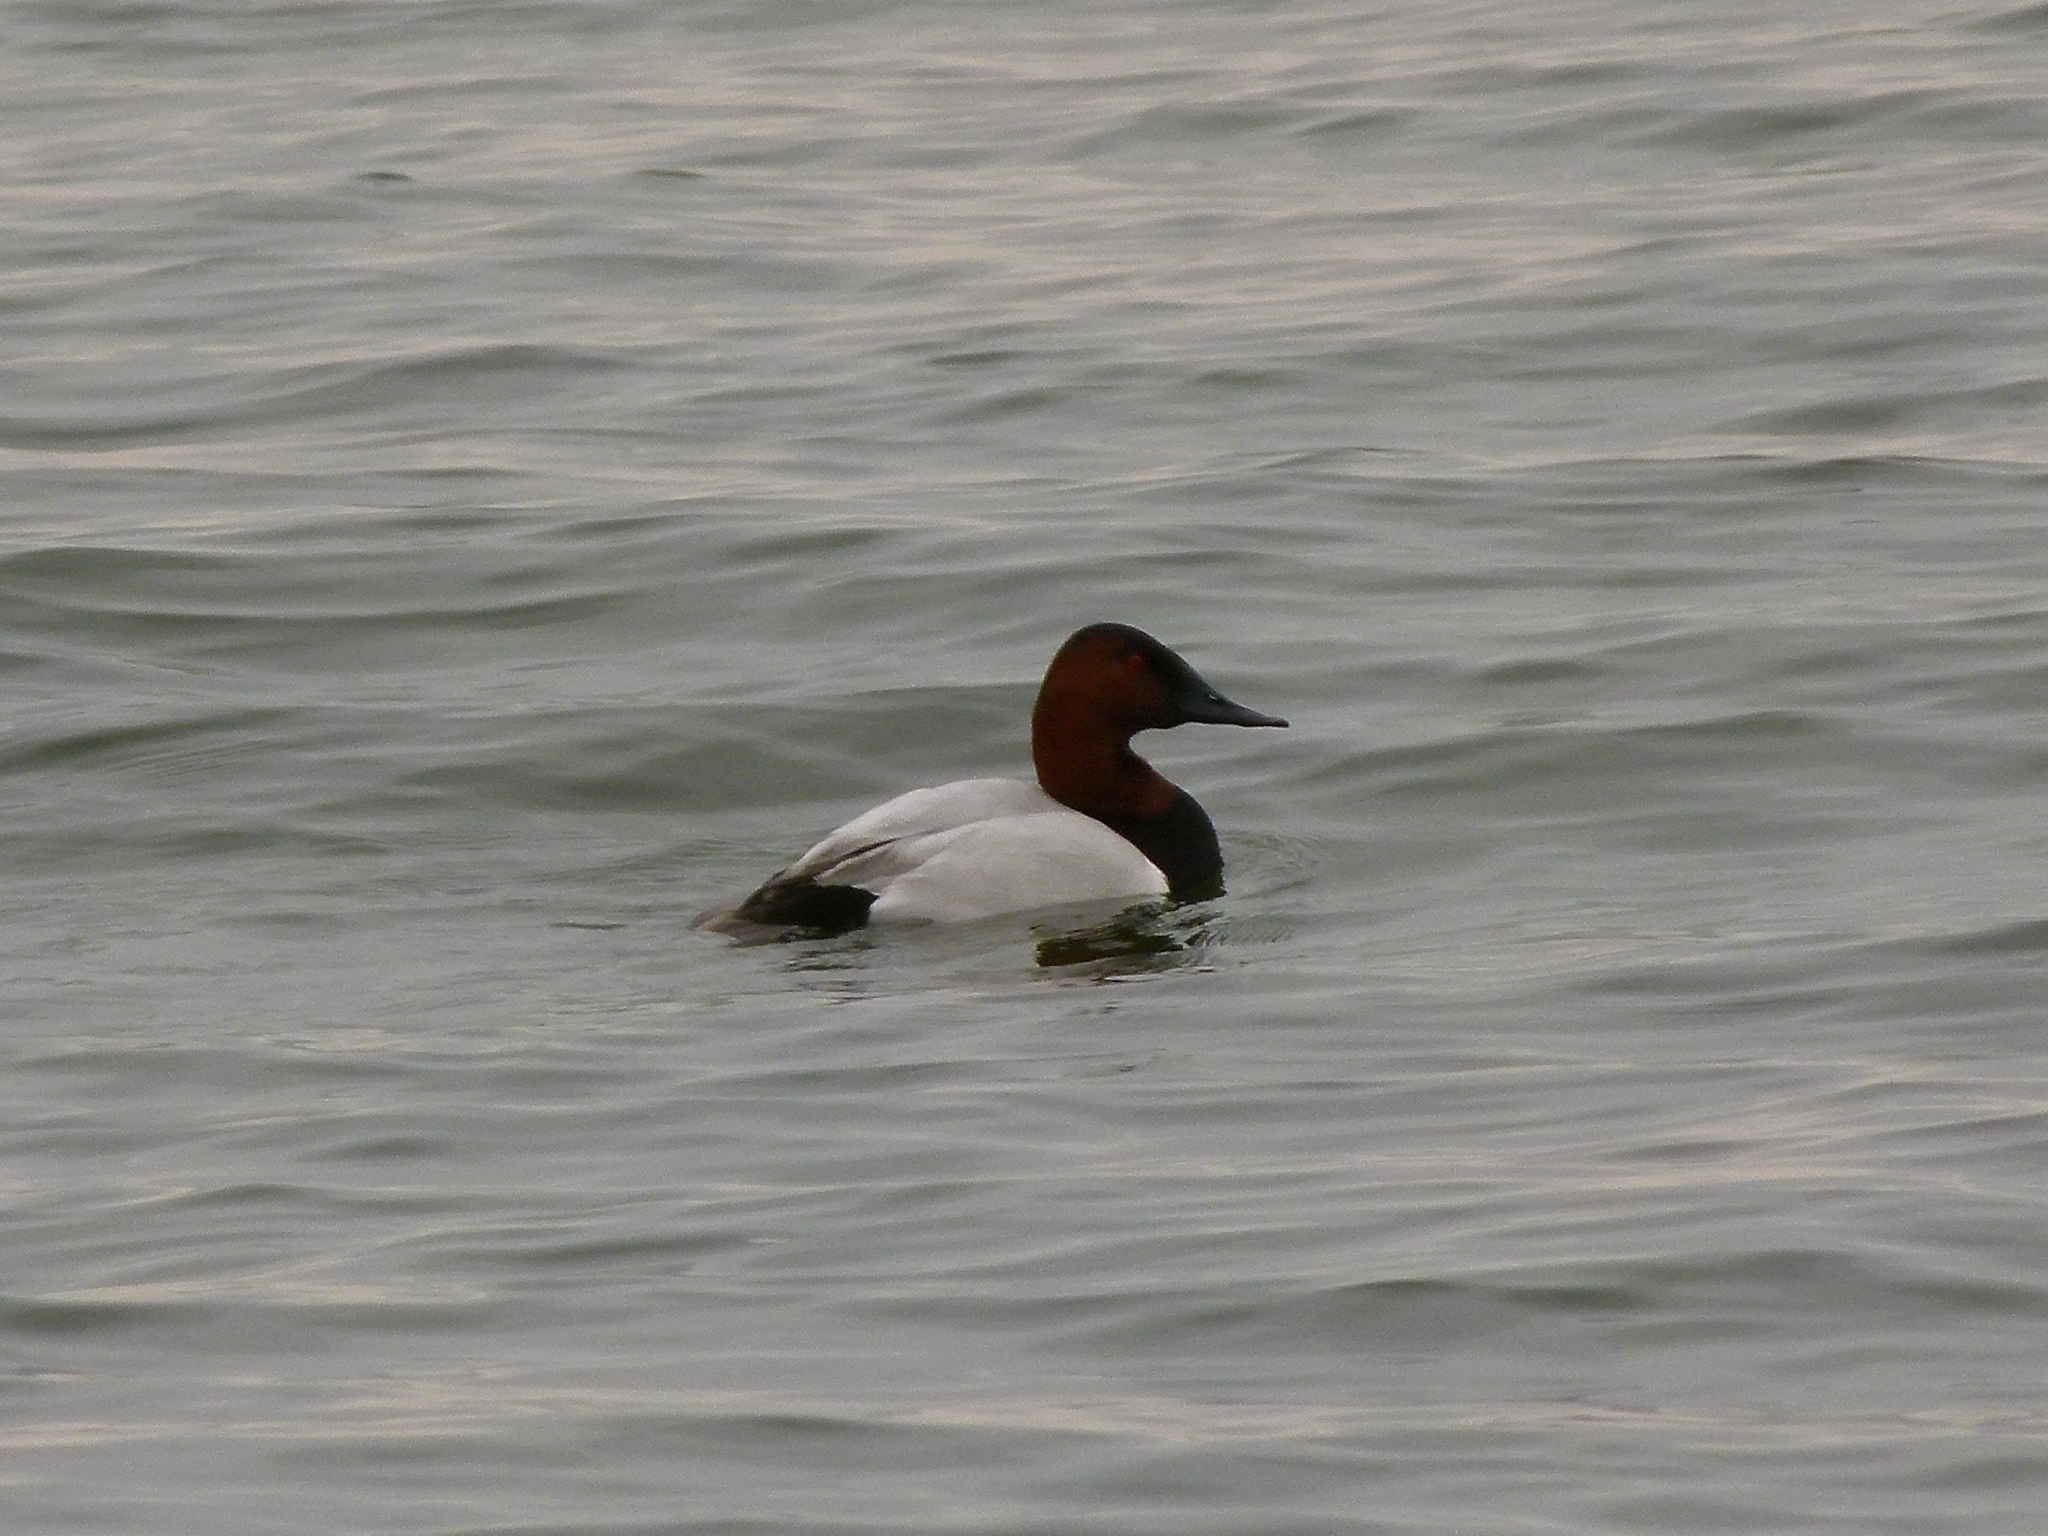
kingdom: Animalia
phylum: Chordata
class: Aves
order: Anseriformes
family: Anatidae
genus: Aythya
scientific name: Aythya valisineria
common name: Canvasback
